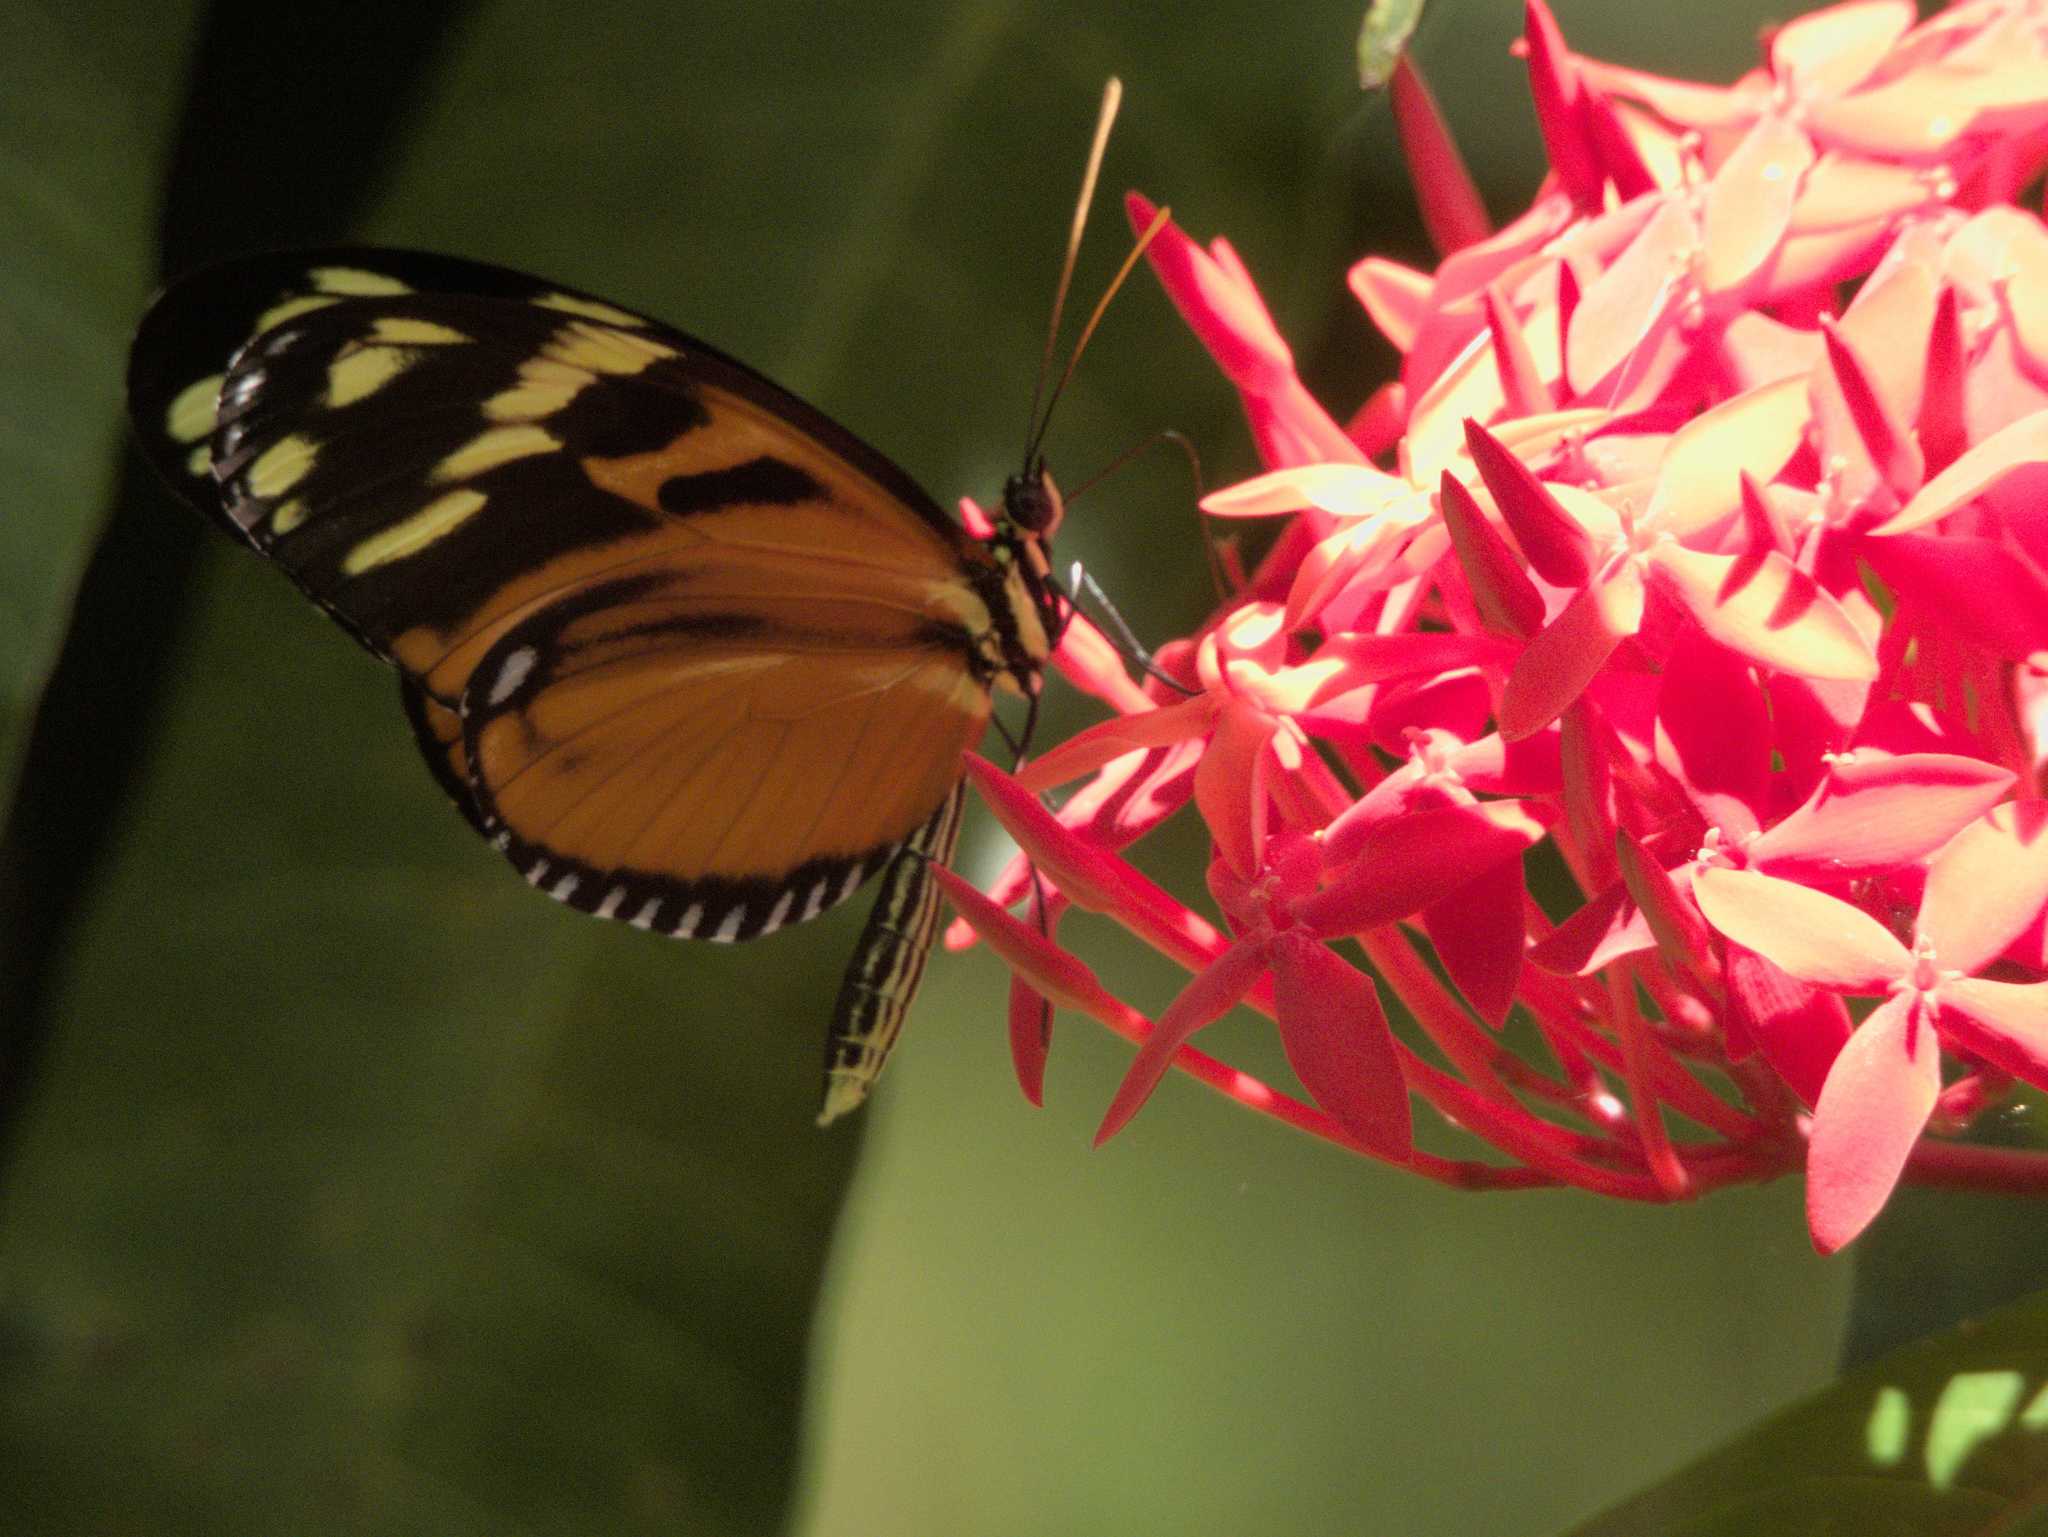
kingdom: Animalia
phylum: Arthropoda
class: Insecta
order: Lepidoptera
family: Nymphalidae
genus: Heliconius
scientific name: Heliconius ismenius
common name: Ismenius tiger
